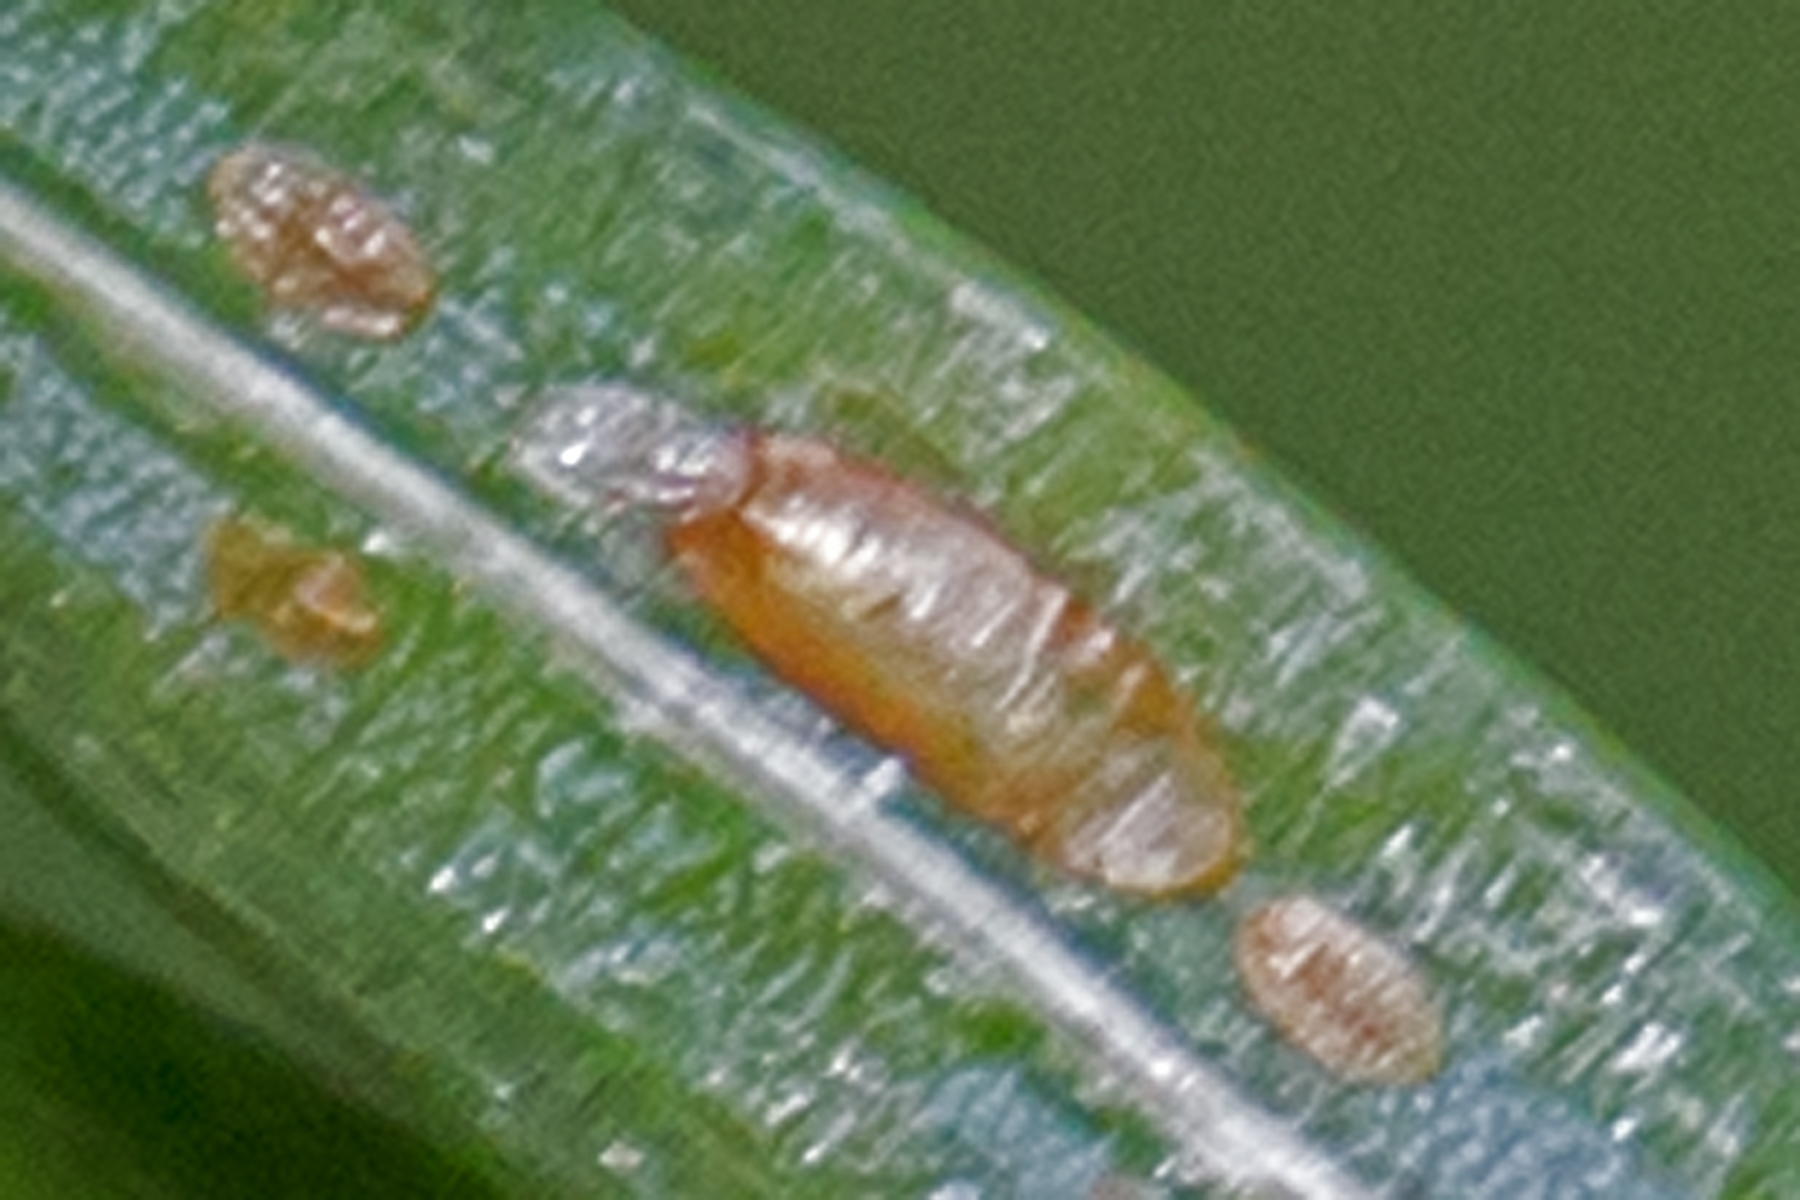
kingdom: Animalia
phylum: Arthropoda
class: Insecta
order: Hemiptera
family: Diaspididae
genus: Fiorinia
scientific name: Fiorinia externa
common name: Elongate hemlock scale
